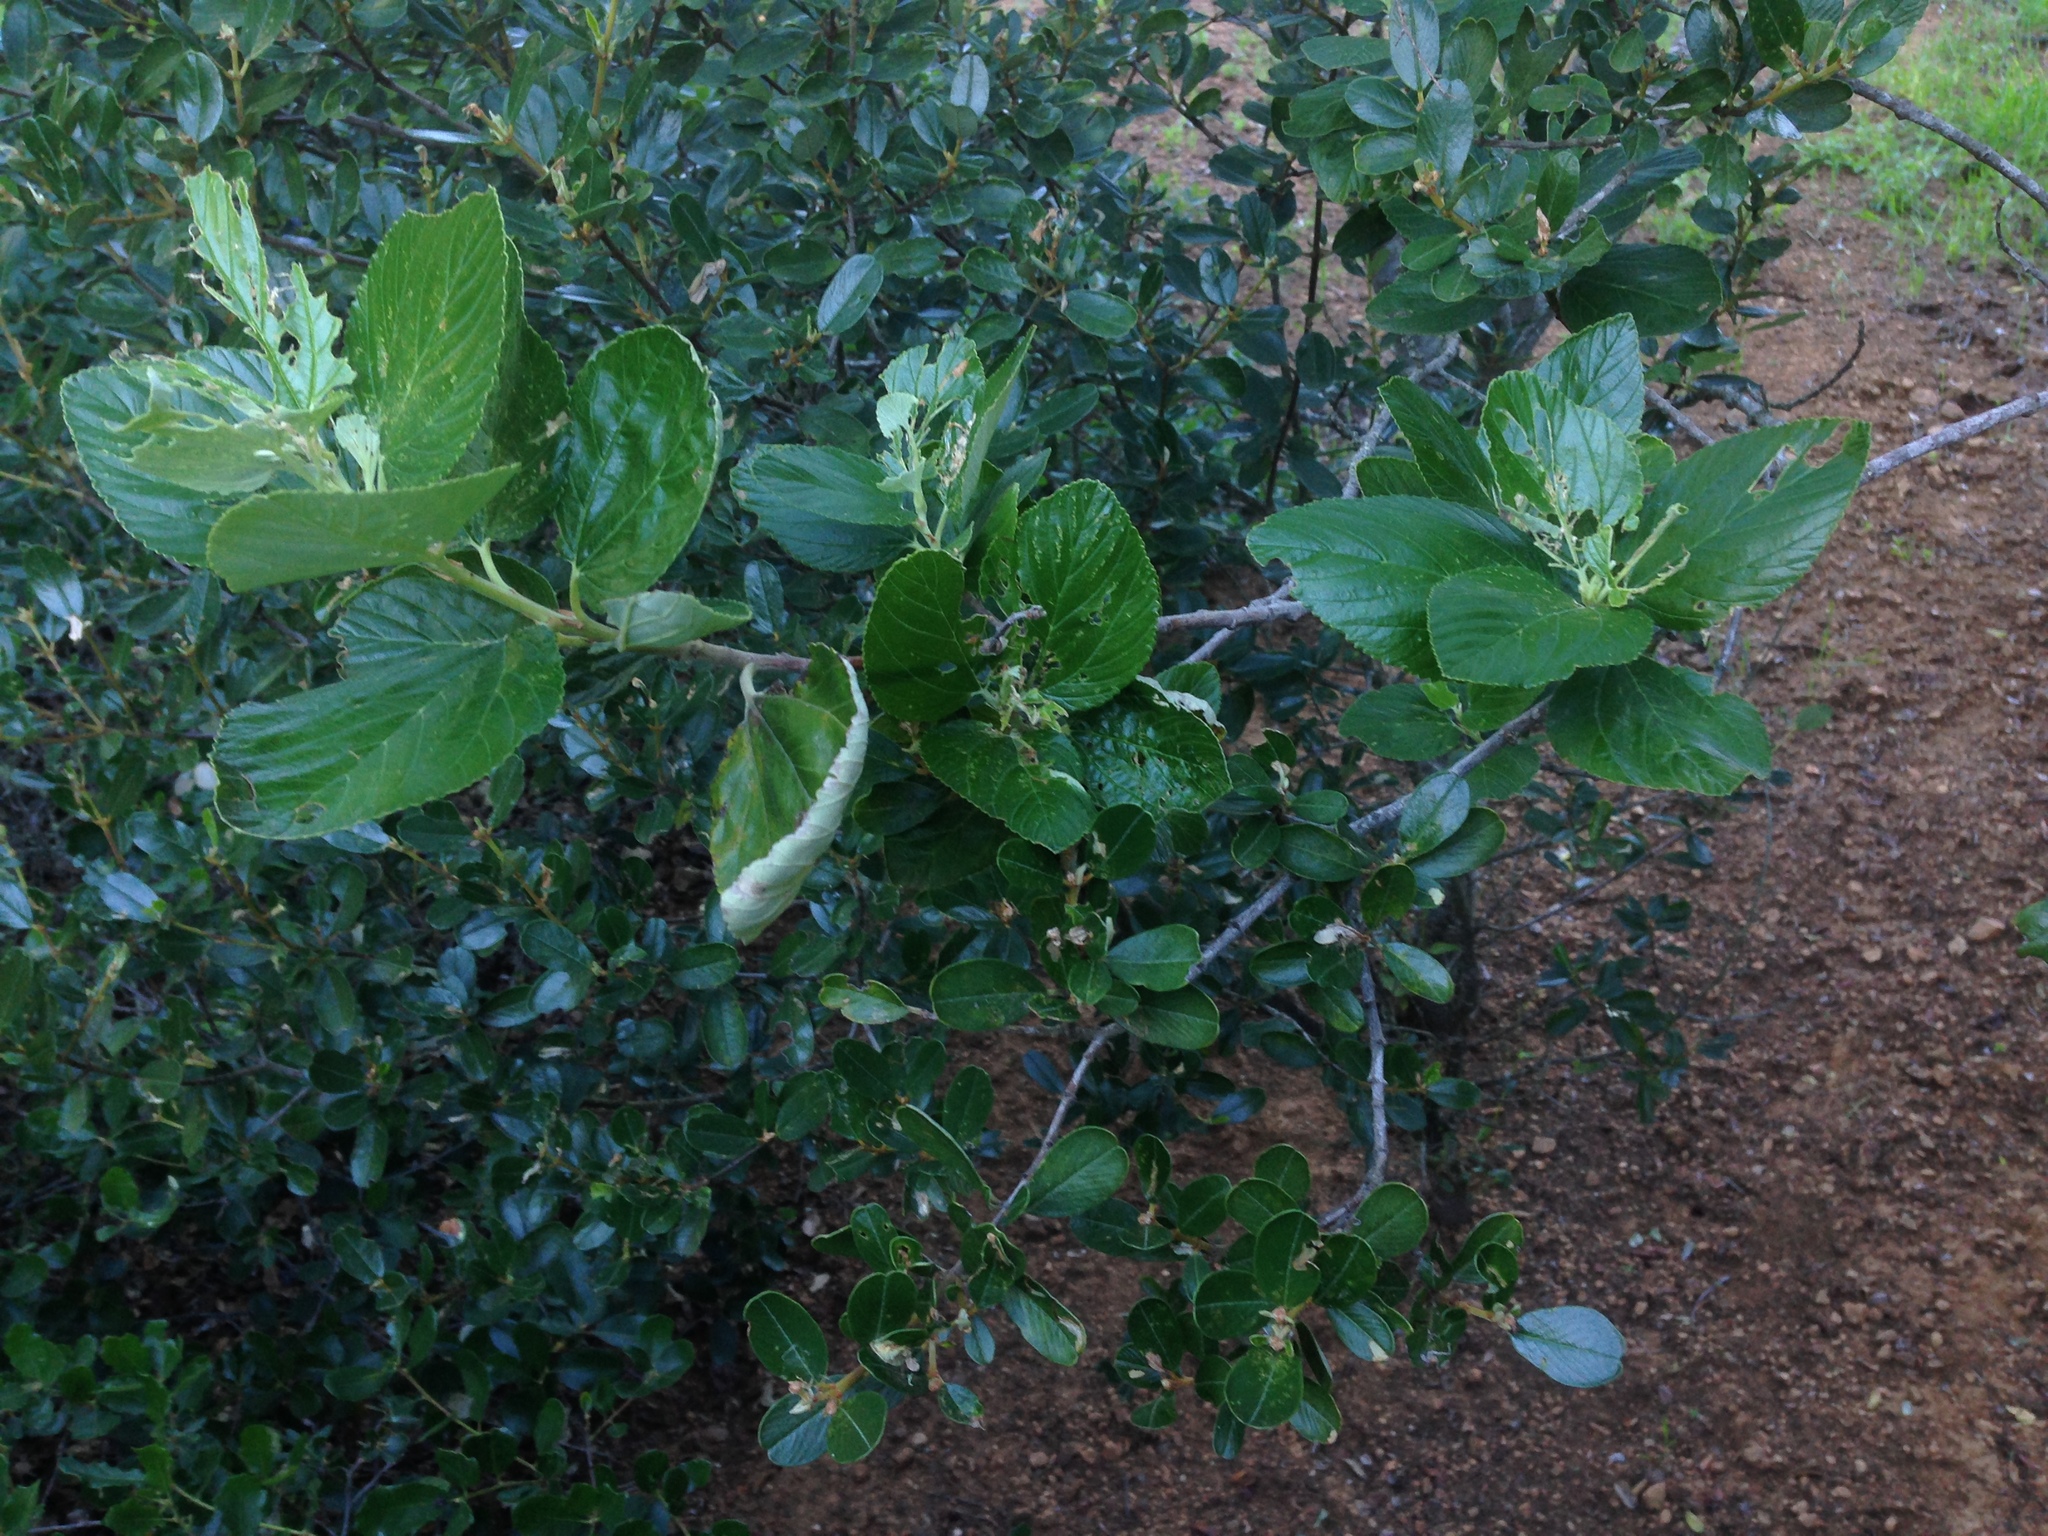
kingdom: Plantae
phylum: Tracheophyta
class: Magnoliopsida
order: Rosales
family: Rhamnaceae
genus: Ceanothus
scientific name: Ceanothus arboreus
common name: Catalina mountain-lilac
